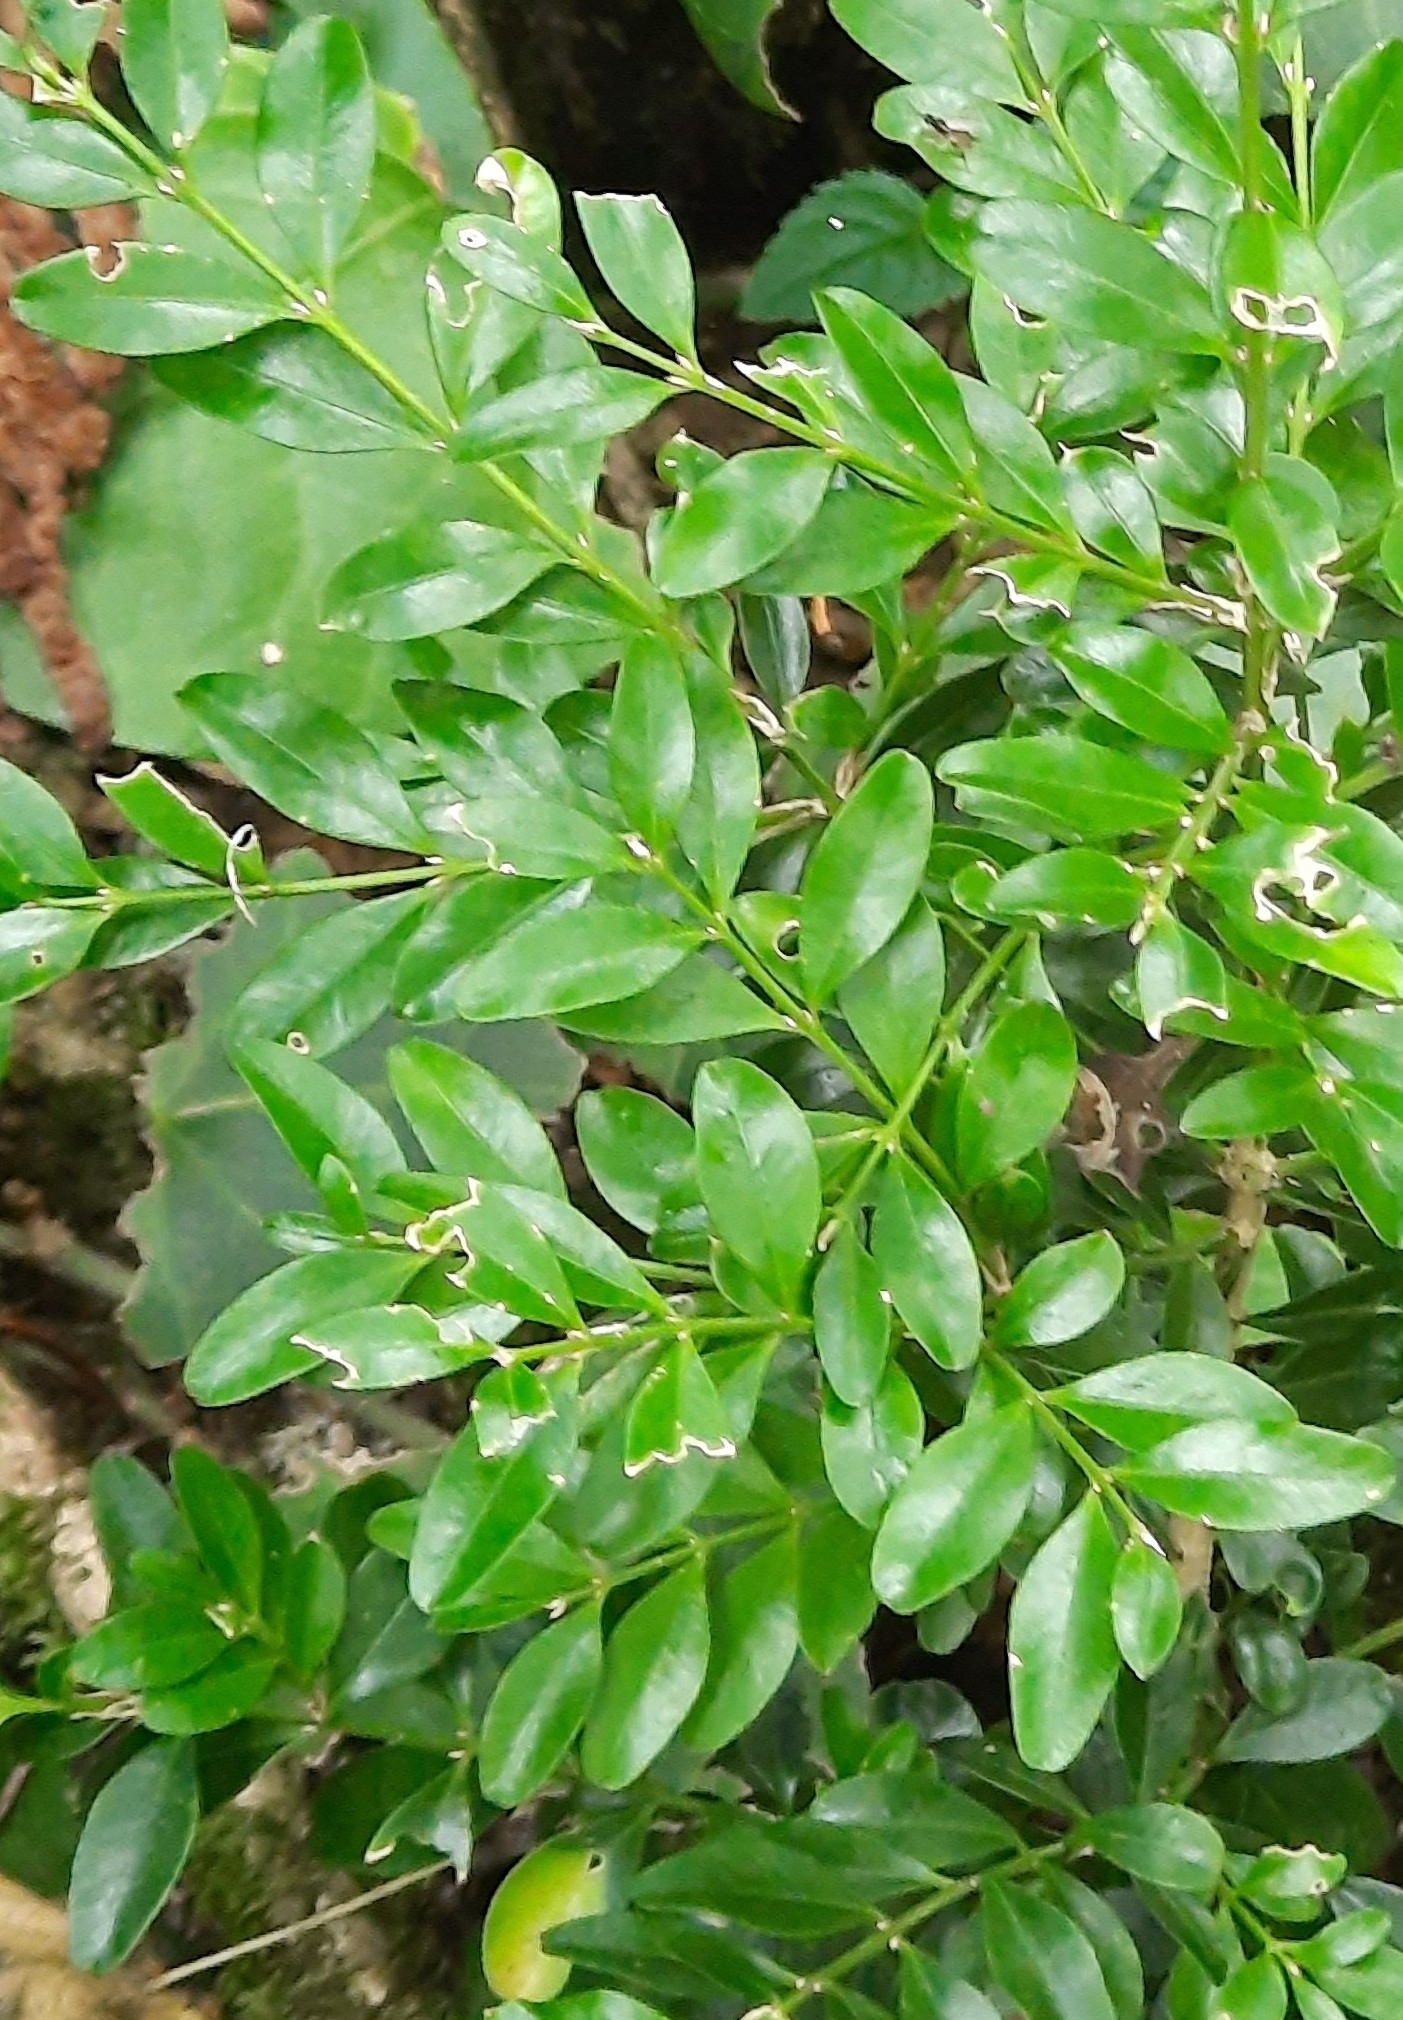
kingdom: Plantae
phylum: Tracheophyta
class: Magnoliopsida
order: Buxales
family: Buxaceae
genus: Buxus
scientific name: Buxus sempervirens
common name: Box
